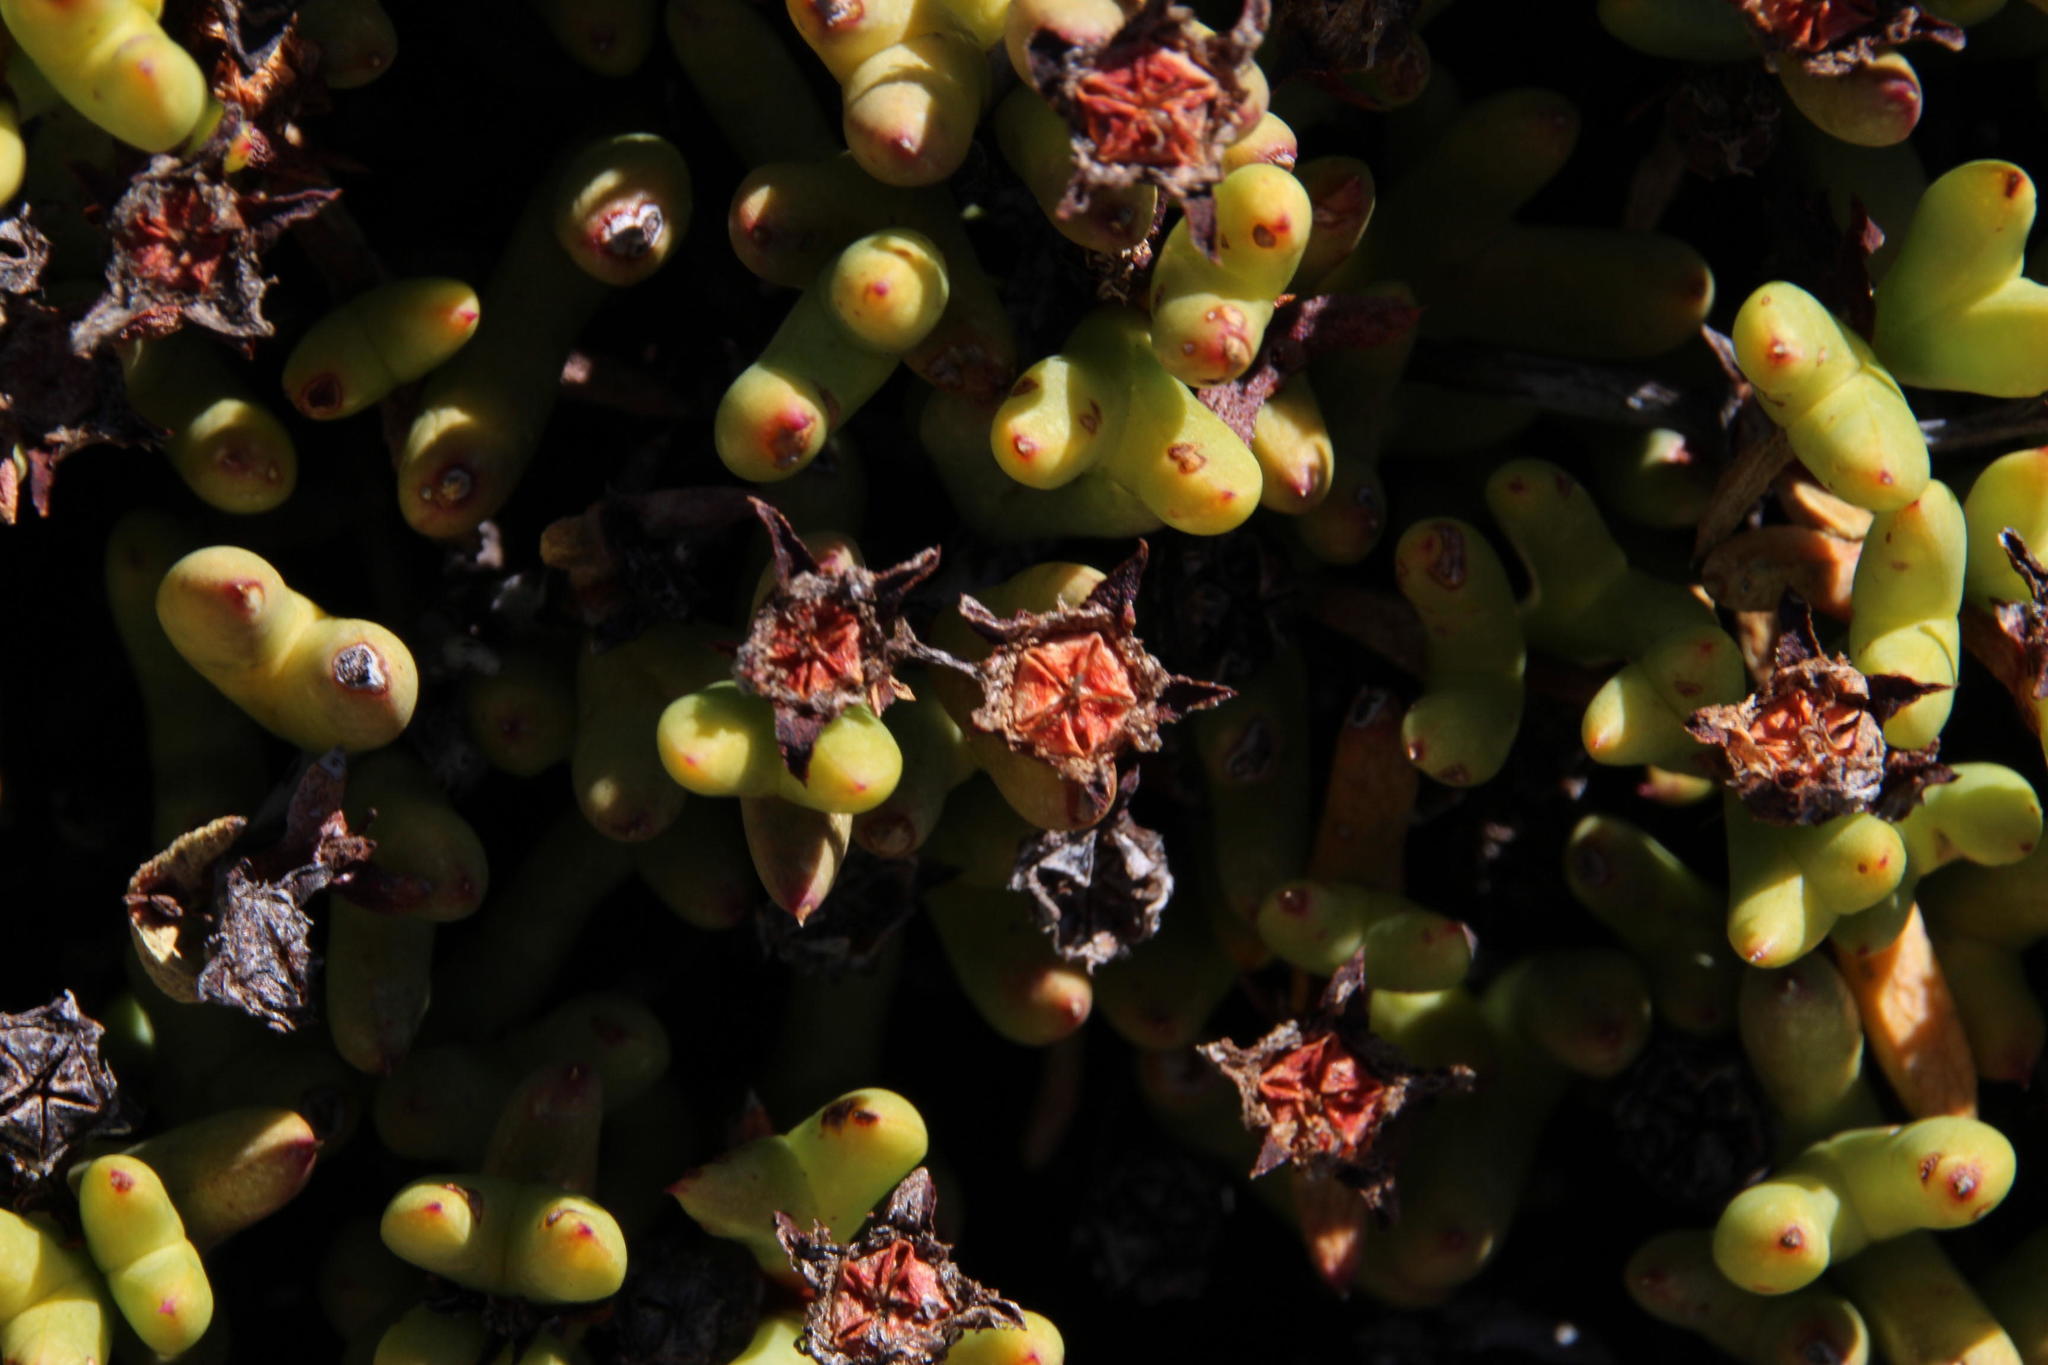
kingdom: Plantae
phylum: Tracheophyta
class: Magnoliopsida
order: Caryophyllales
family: Aizoaceae
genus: Esterhuysenia
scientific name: Esterhuysenia alpina
